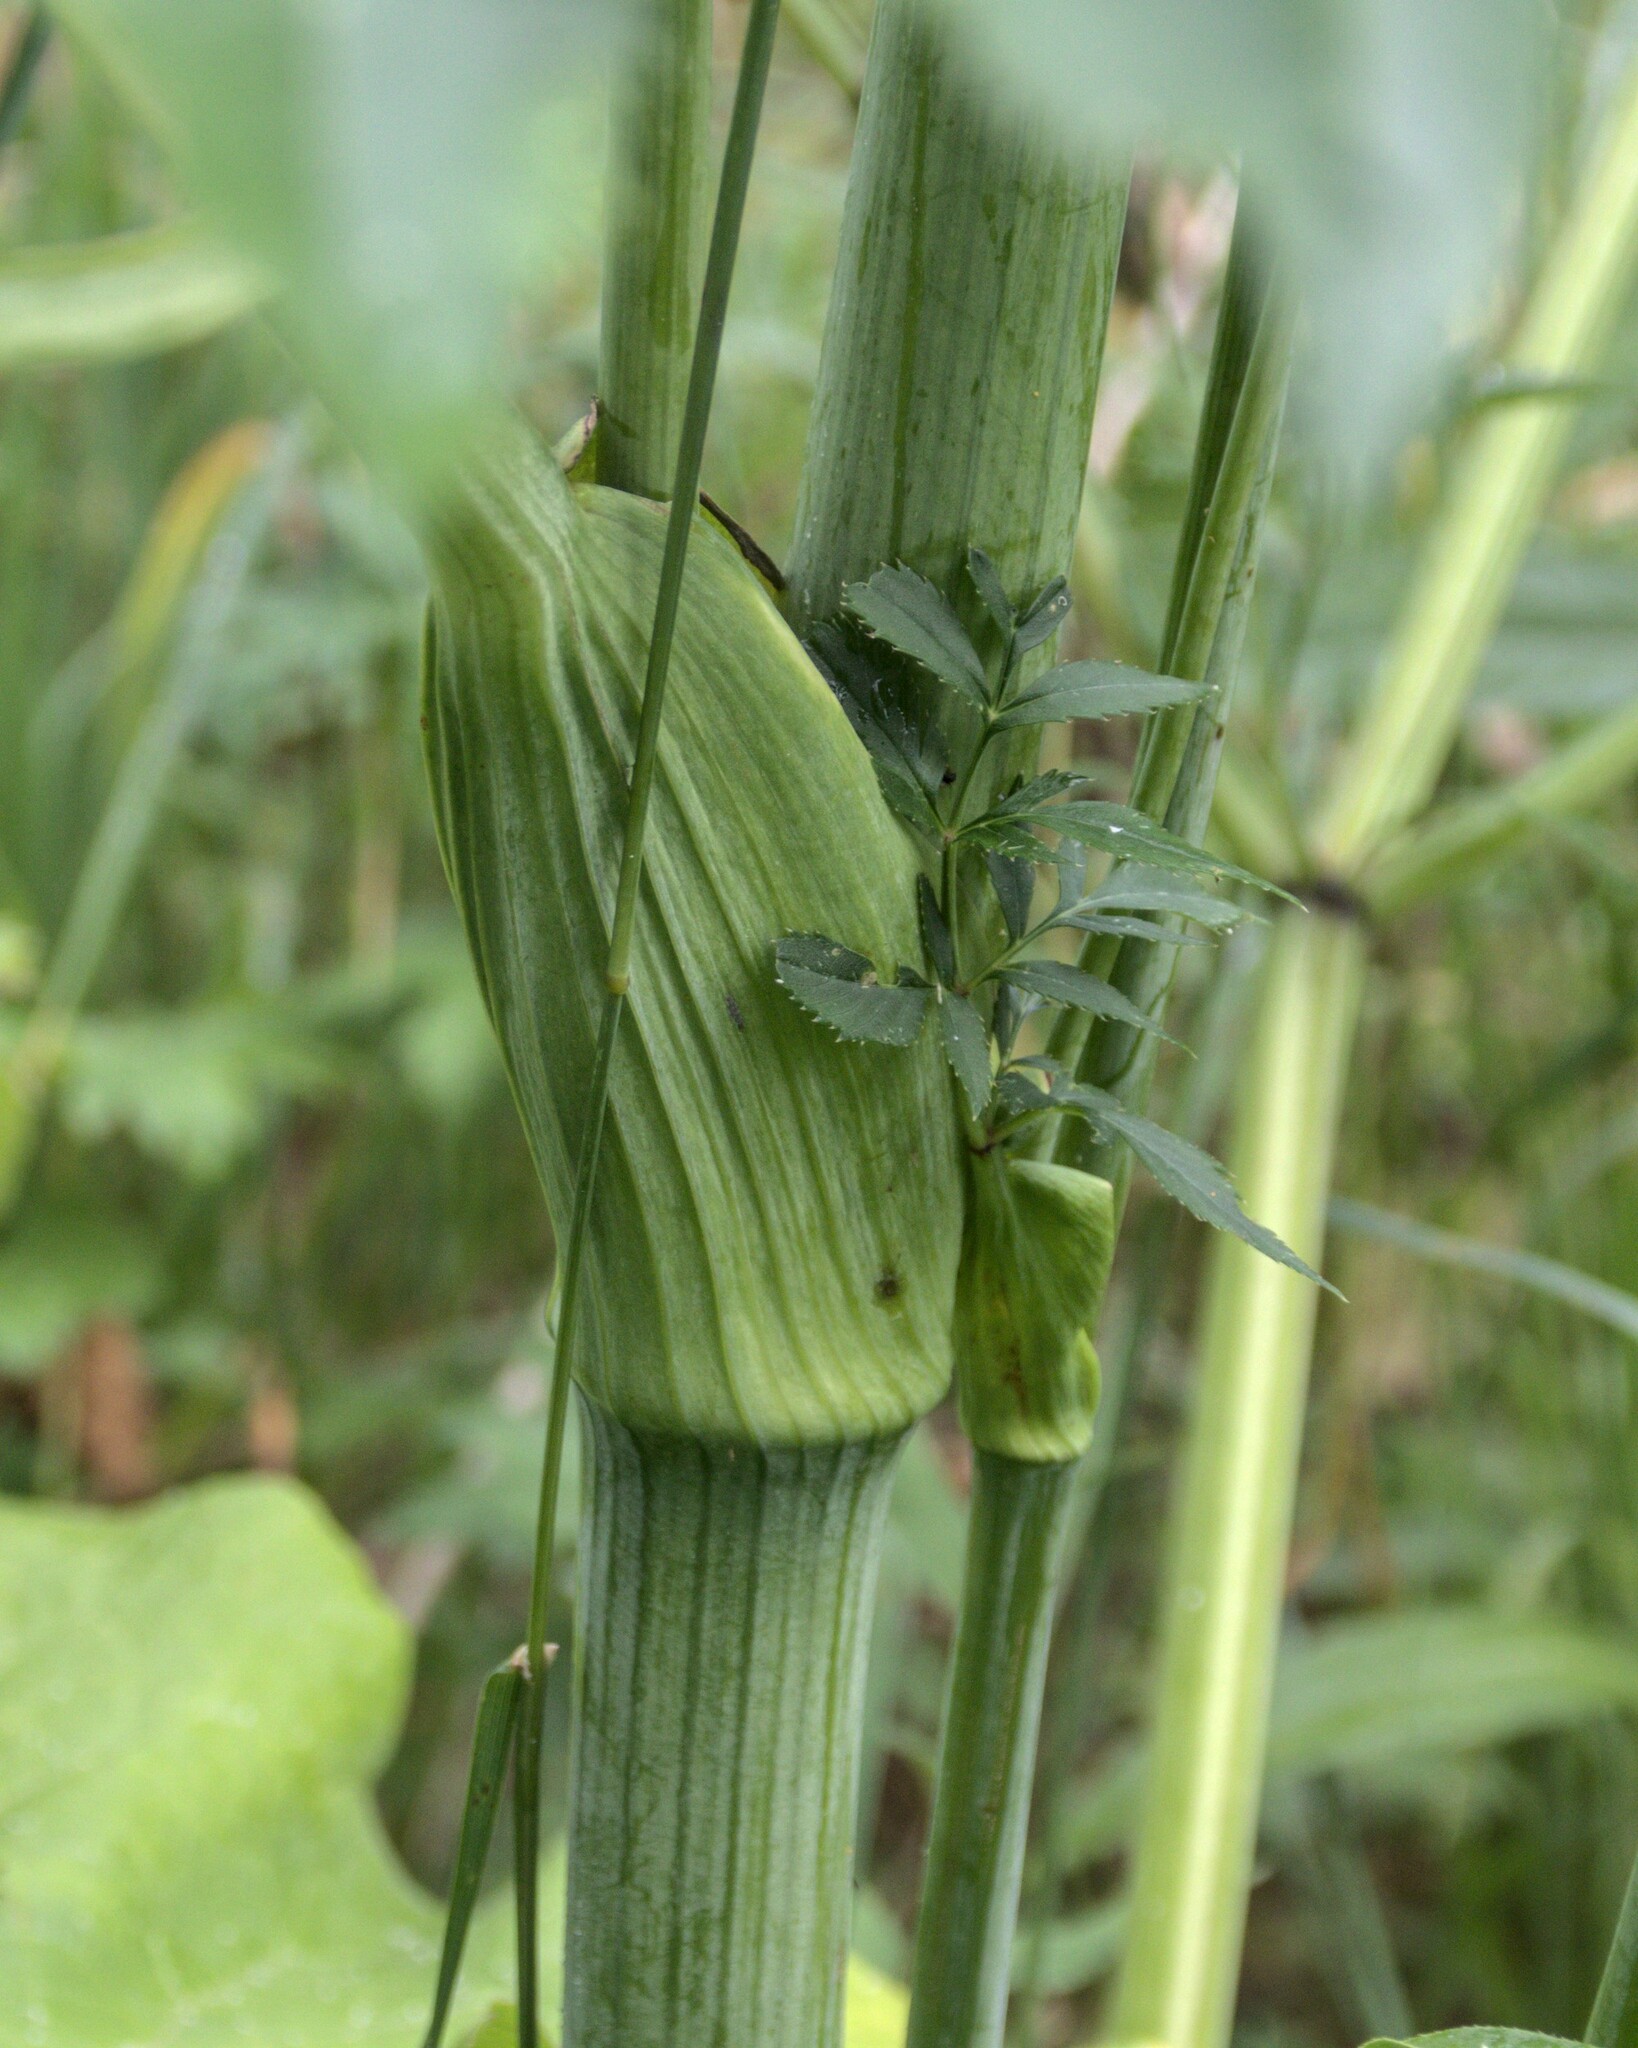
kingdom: Plantae
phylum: Tracheophyta
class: Magnoliopsida
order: Apiales
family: Apiaceae
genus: Angelica
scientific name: Angelica sylvestris
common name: Wild angelica
